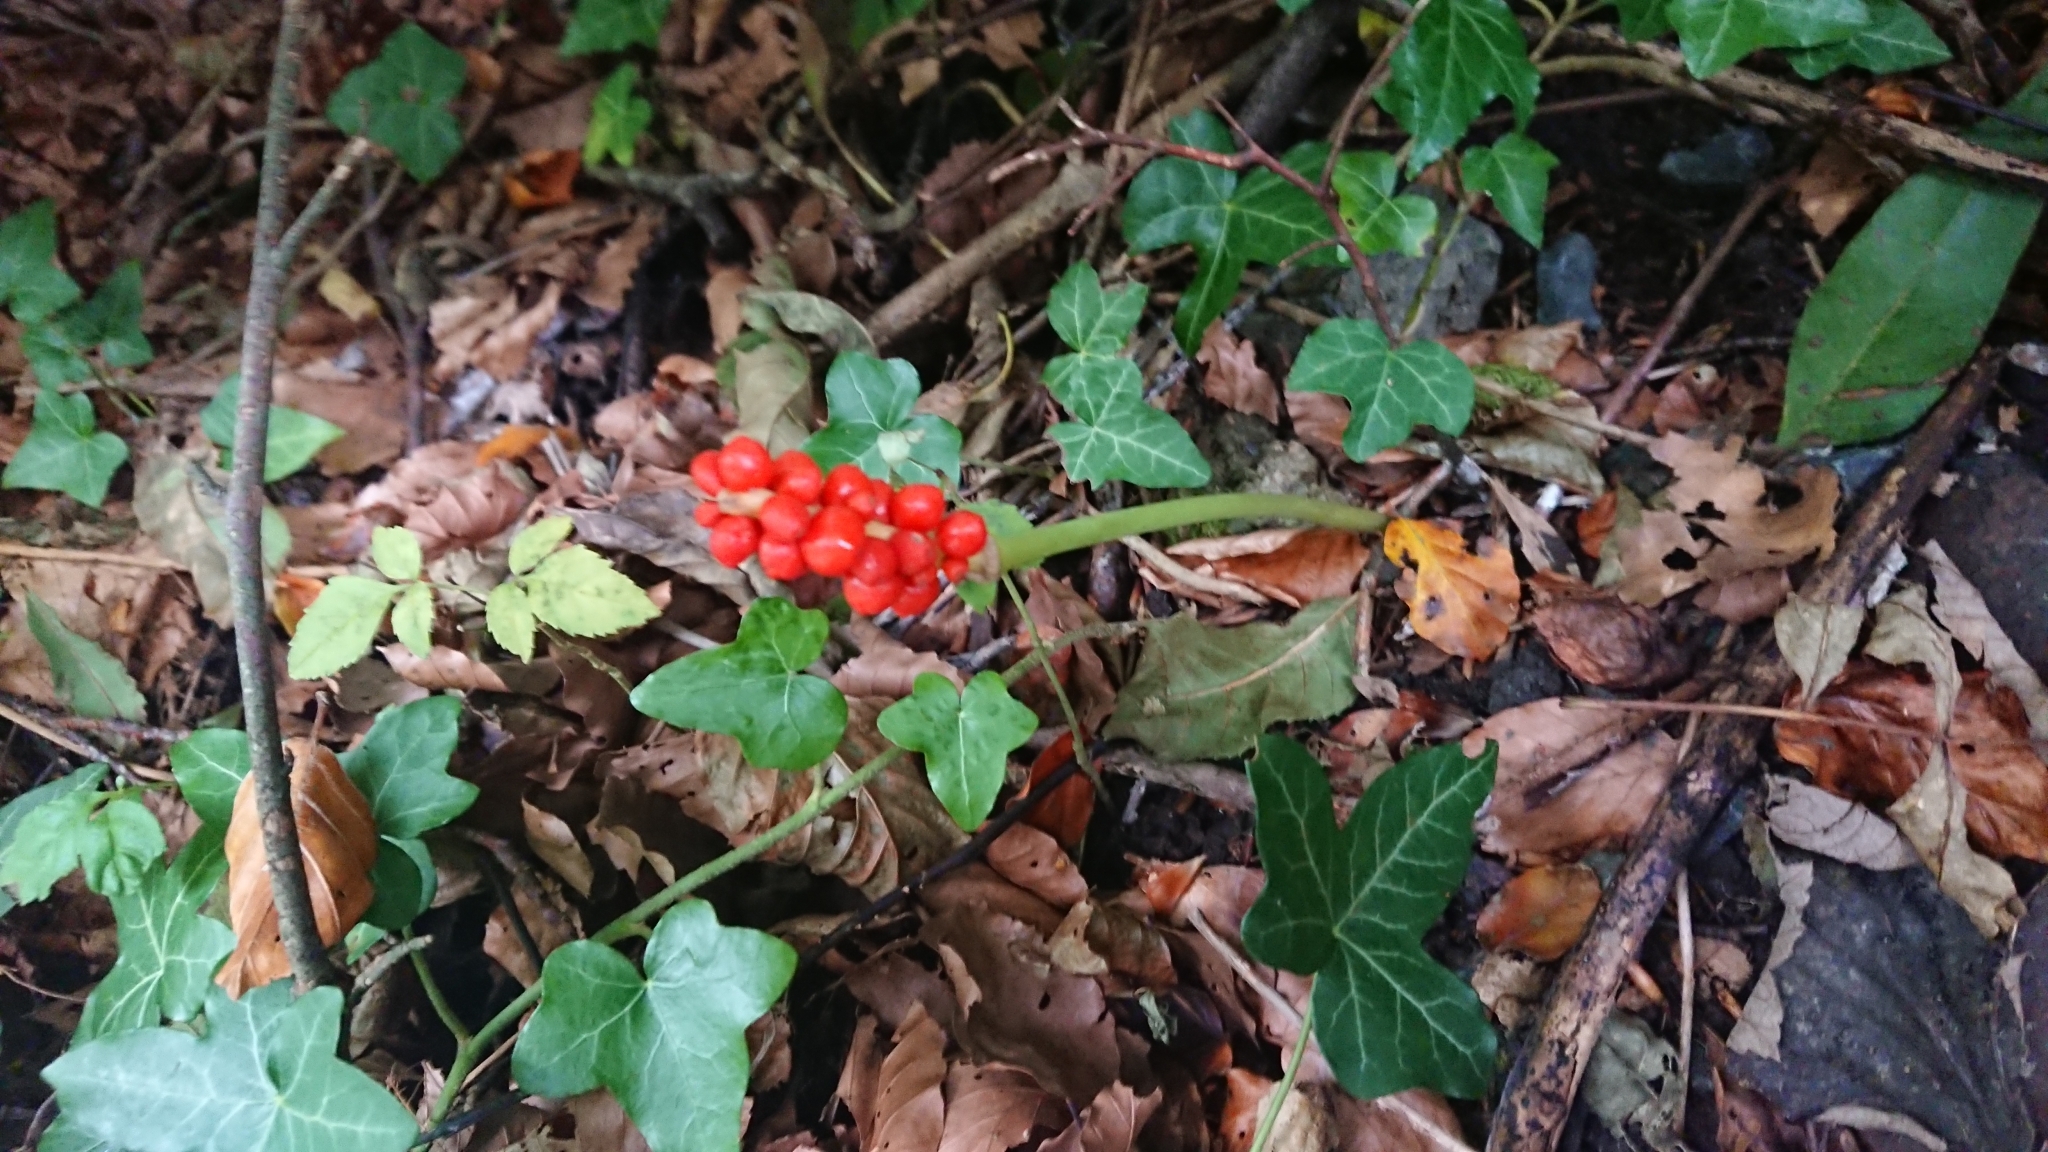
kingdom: Plantae
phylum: Tracheophyta
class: Liliopsida
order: Alismatales
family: Araceae
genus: Arum
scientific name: Arum maculatum
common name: Lords-and-ladies
